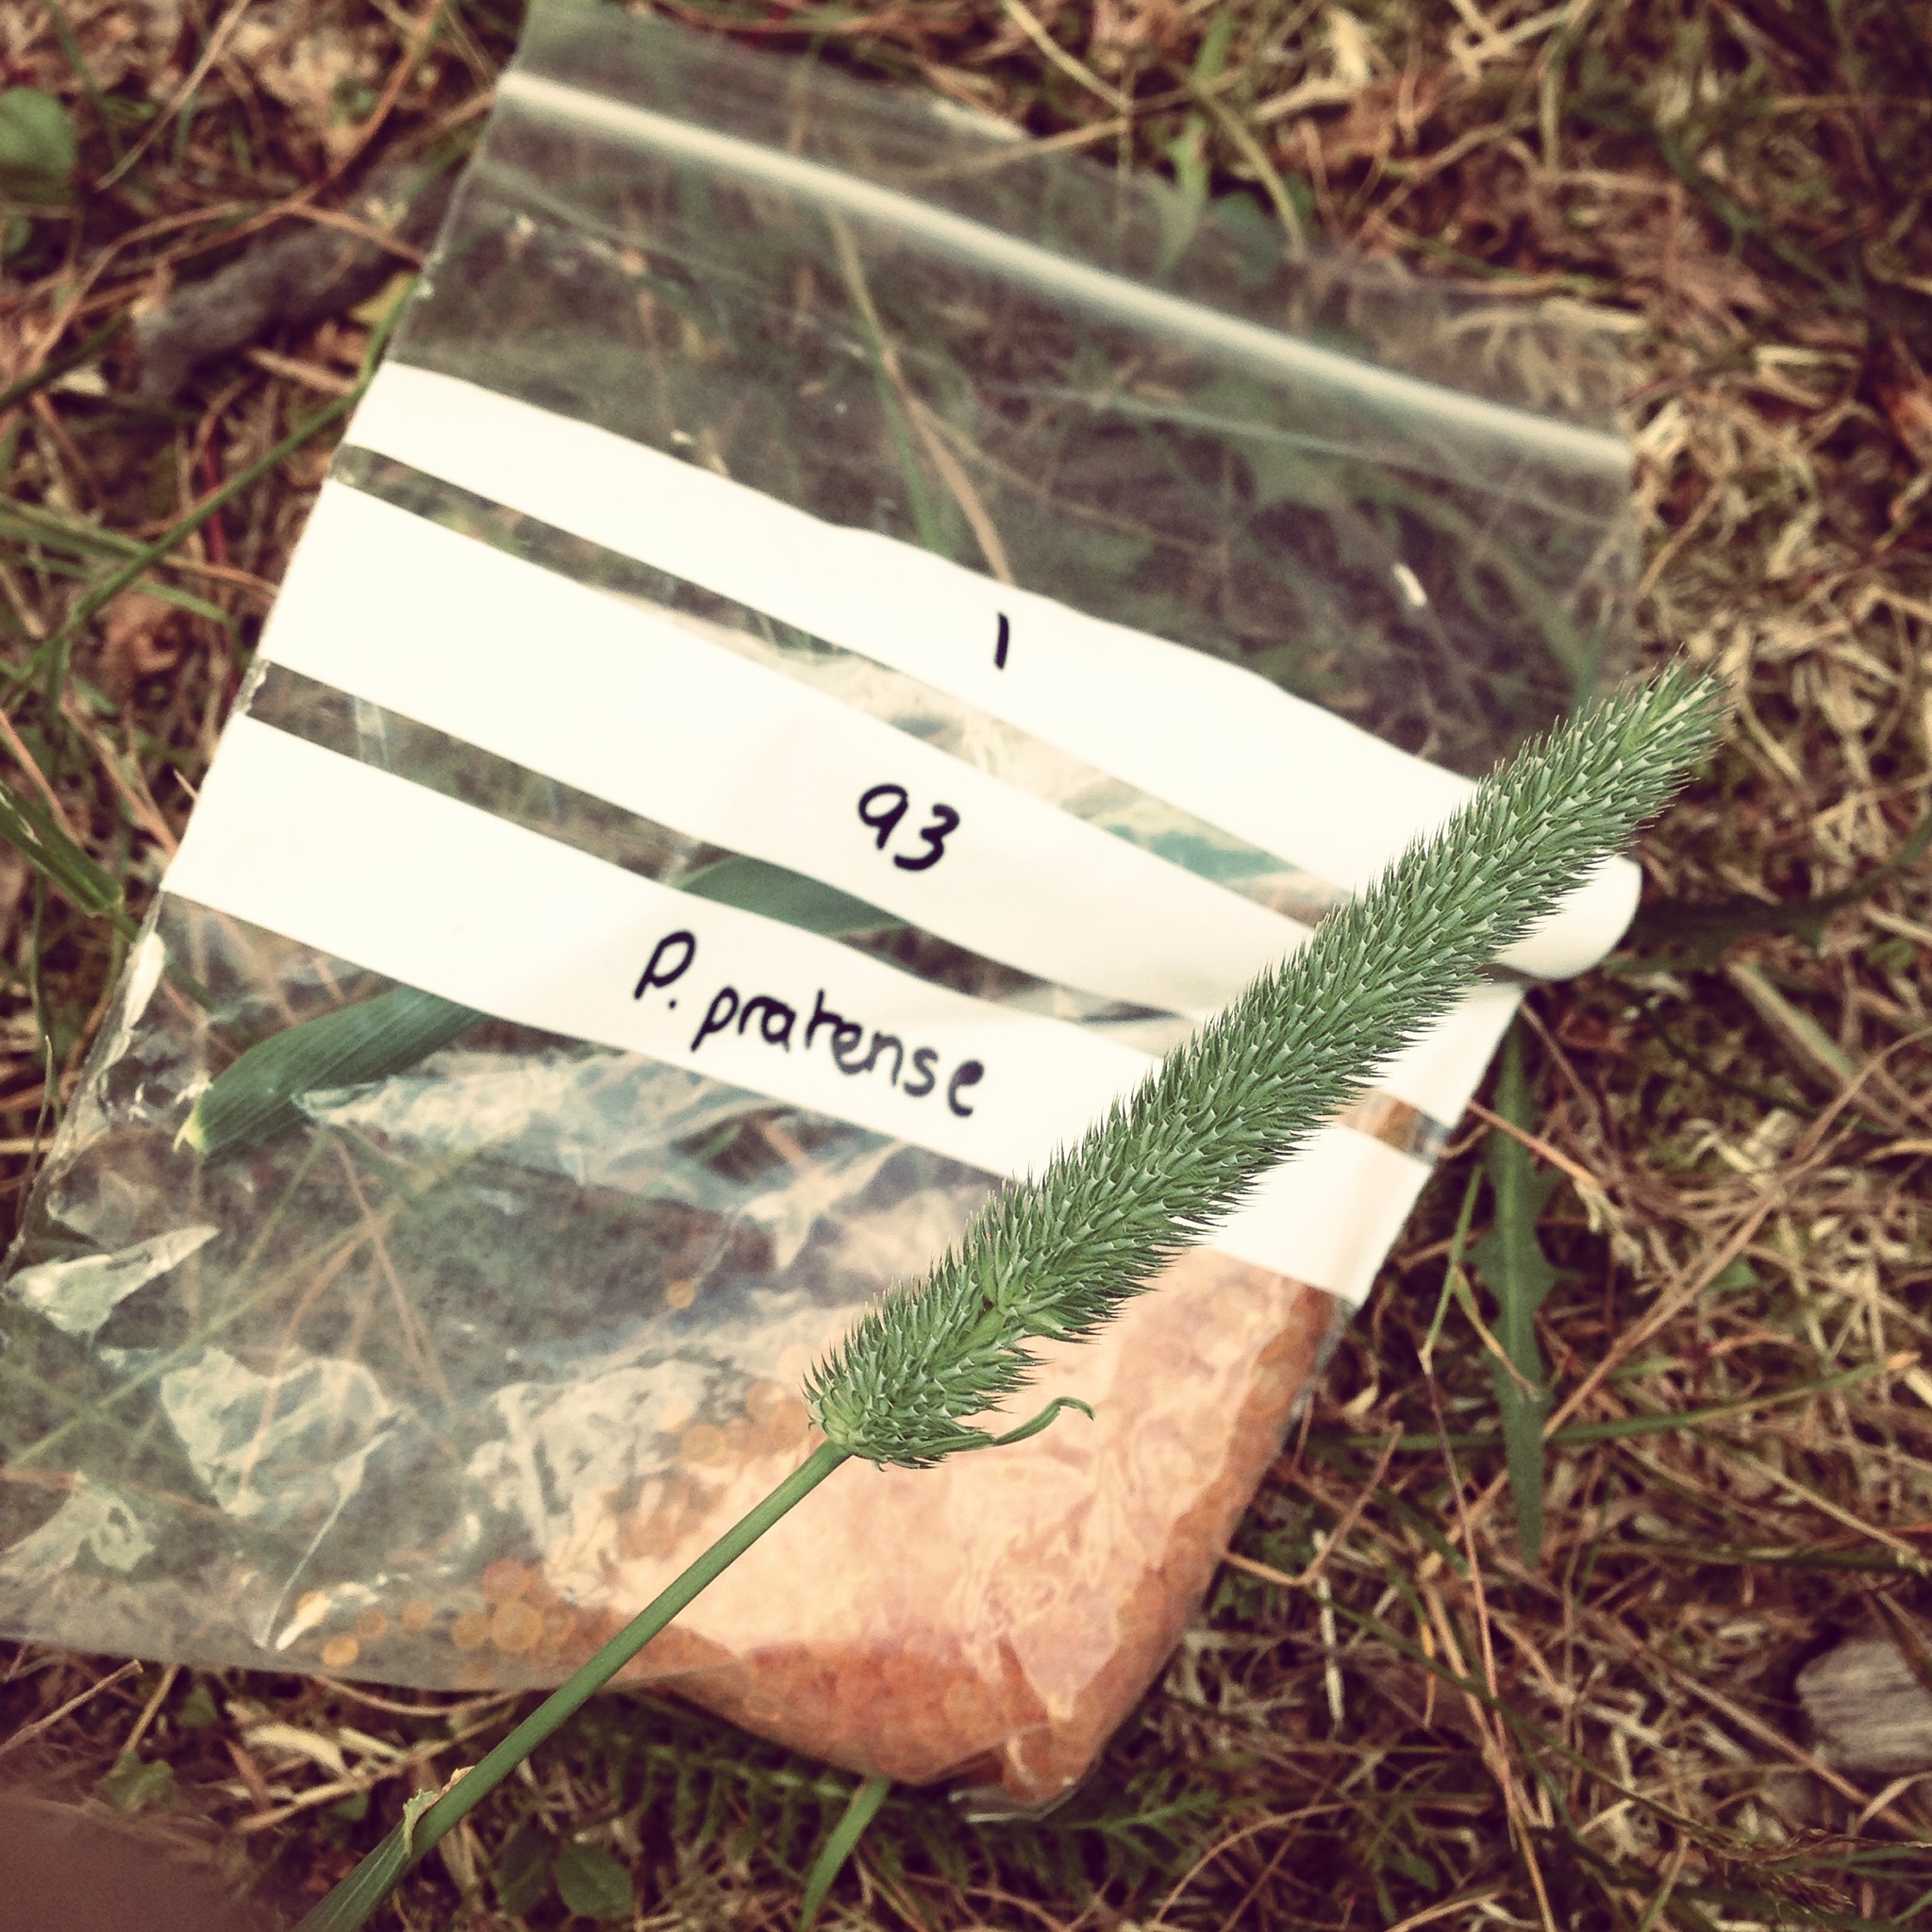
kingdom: Plantae
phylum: Tracheophyta
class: Liliopsida
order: Poales
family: Poaceae
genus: Phleum
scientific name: Phleum pratense
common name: Timothy grass
